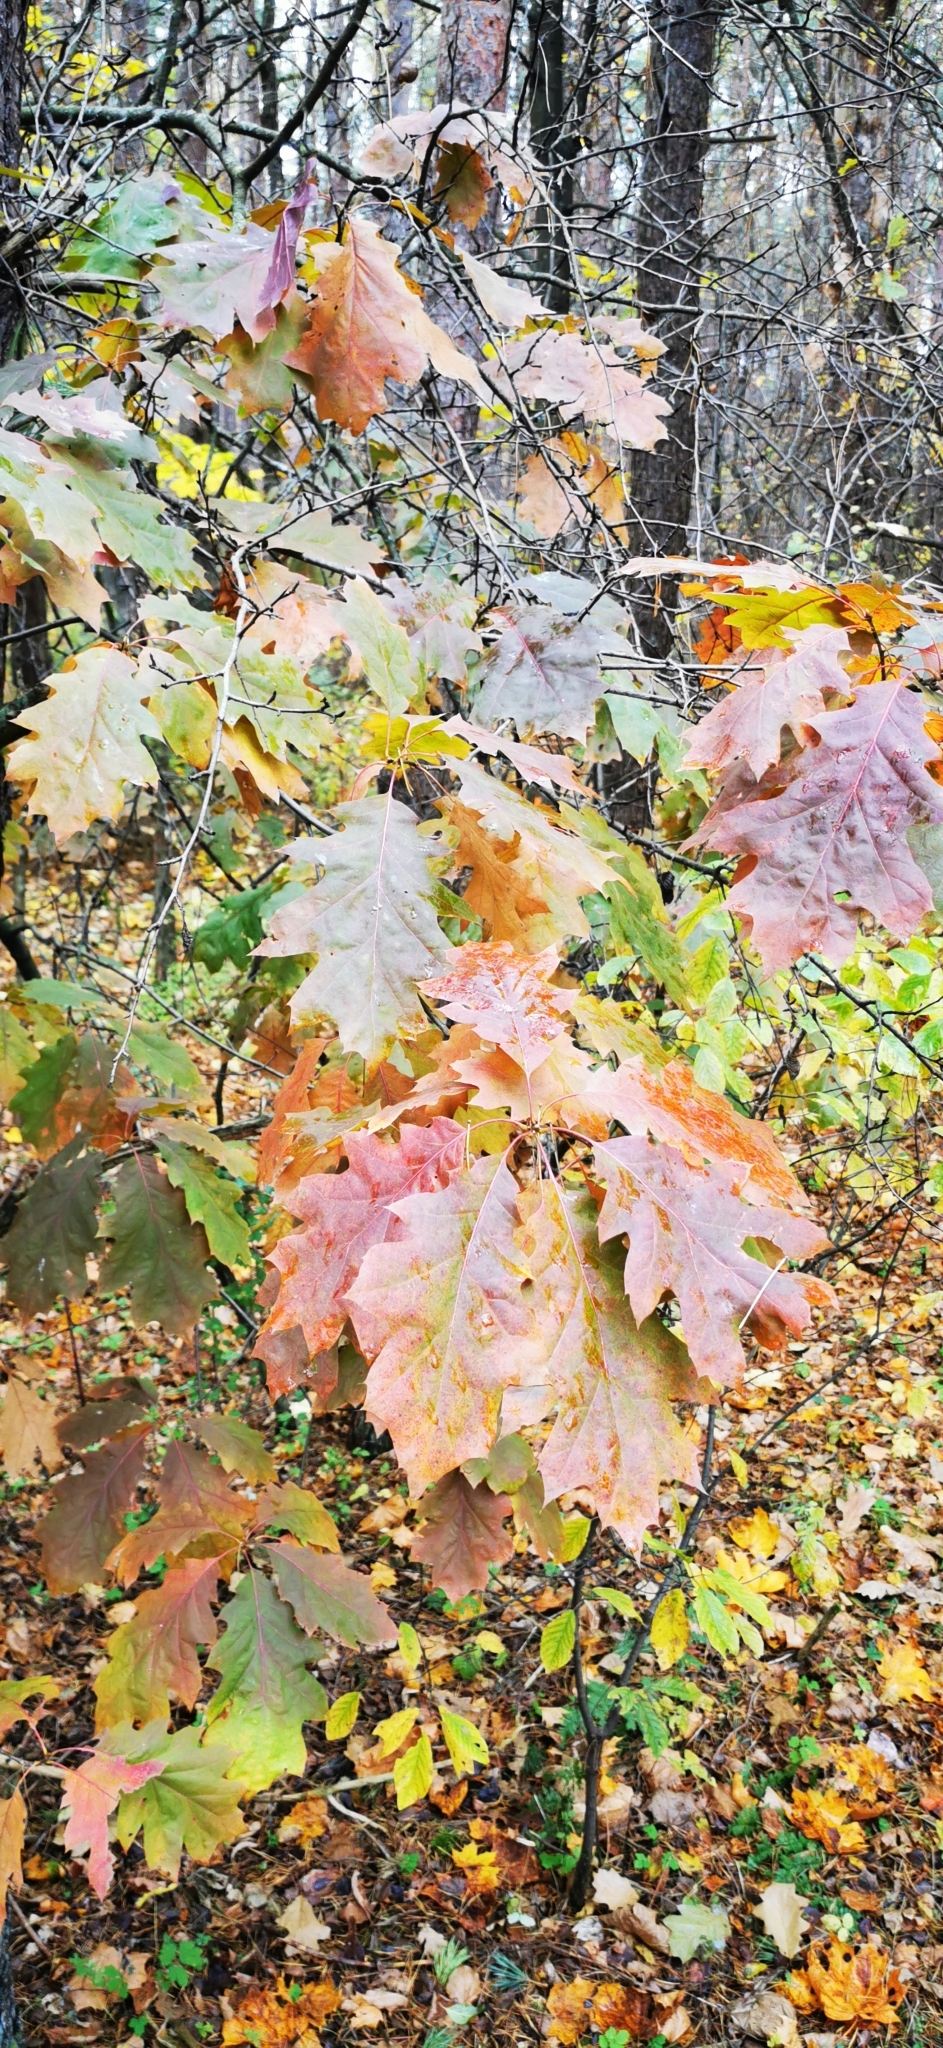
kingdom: Plantae
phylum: Tracheophyta
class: Magnoliopsida
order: Fagales
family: Fagaceae
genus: Quercus
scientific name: Quercus rubra
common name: Red oak
